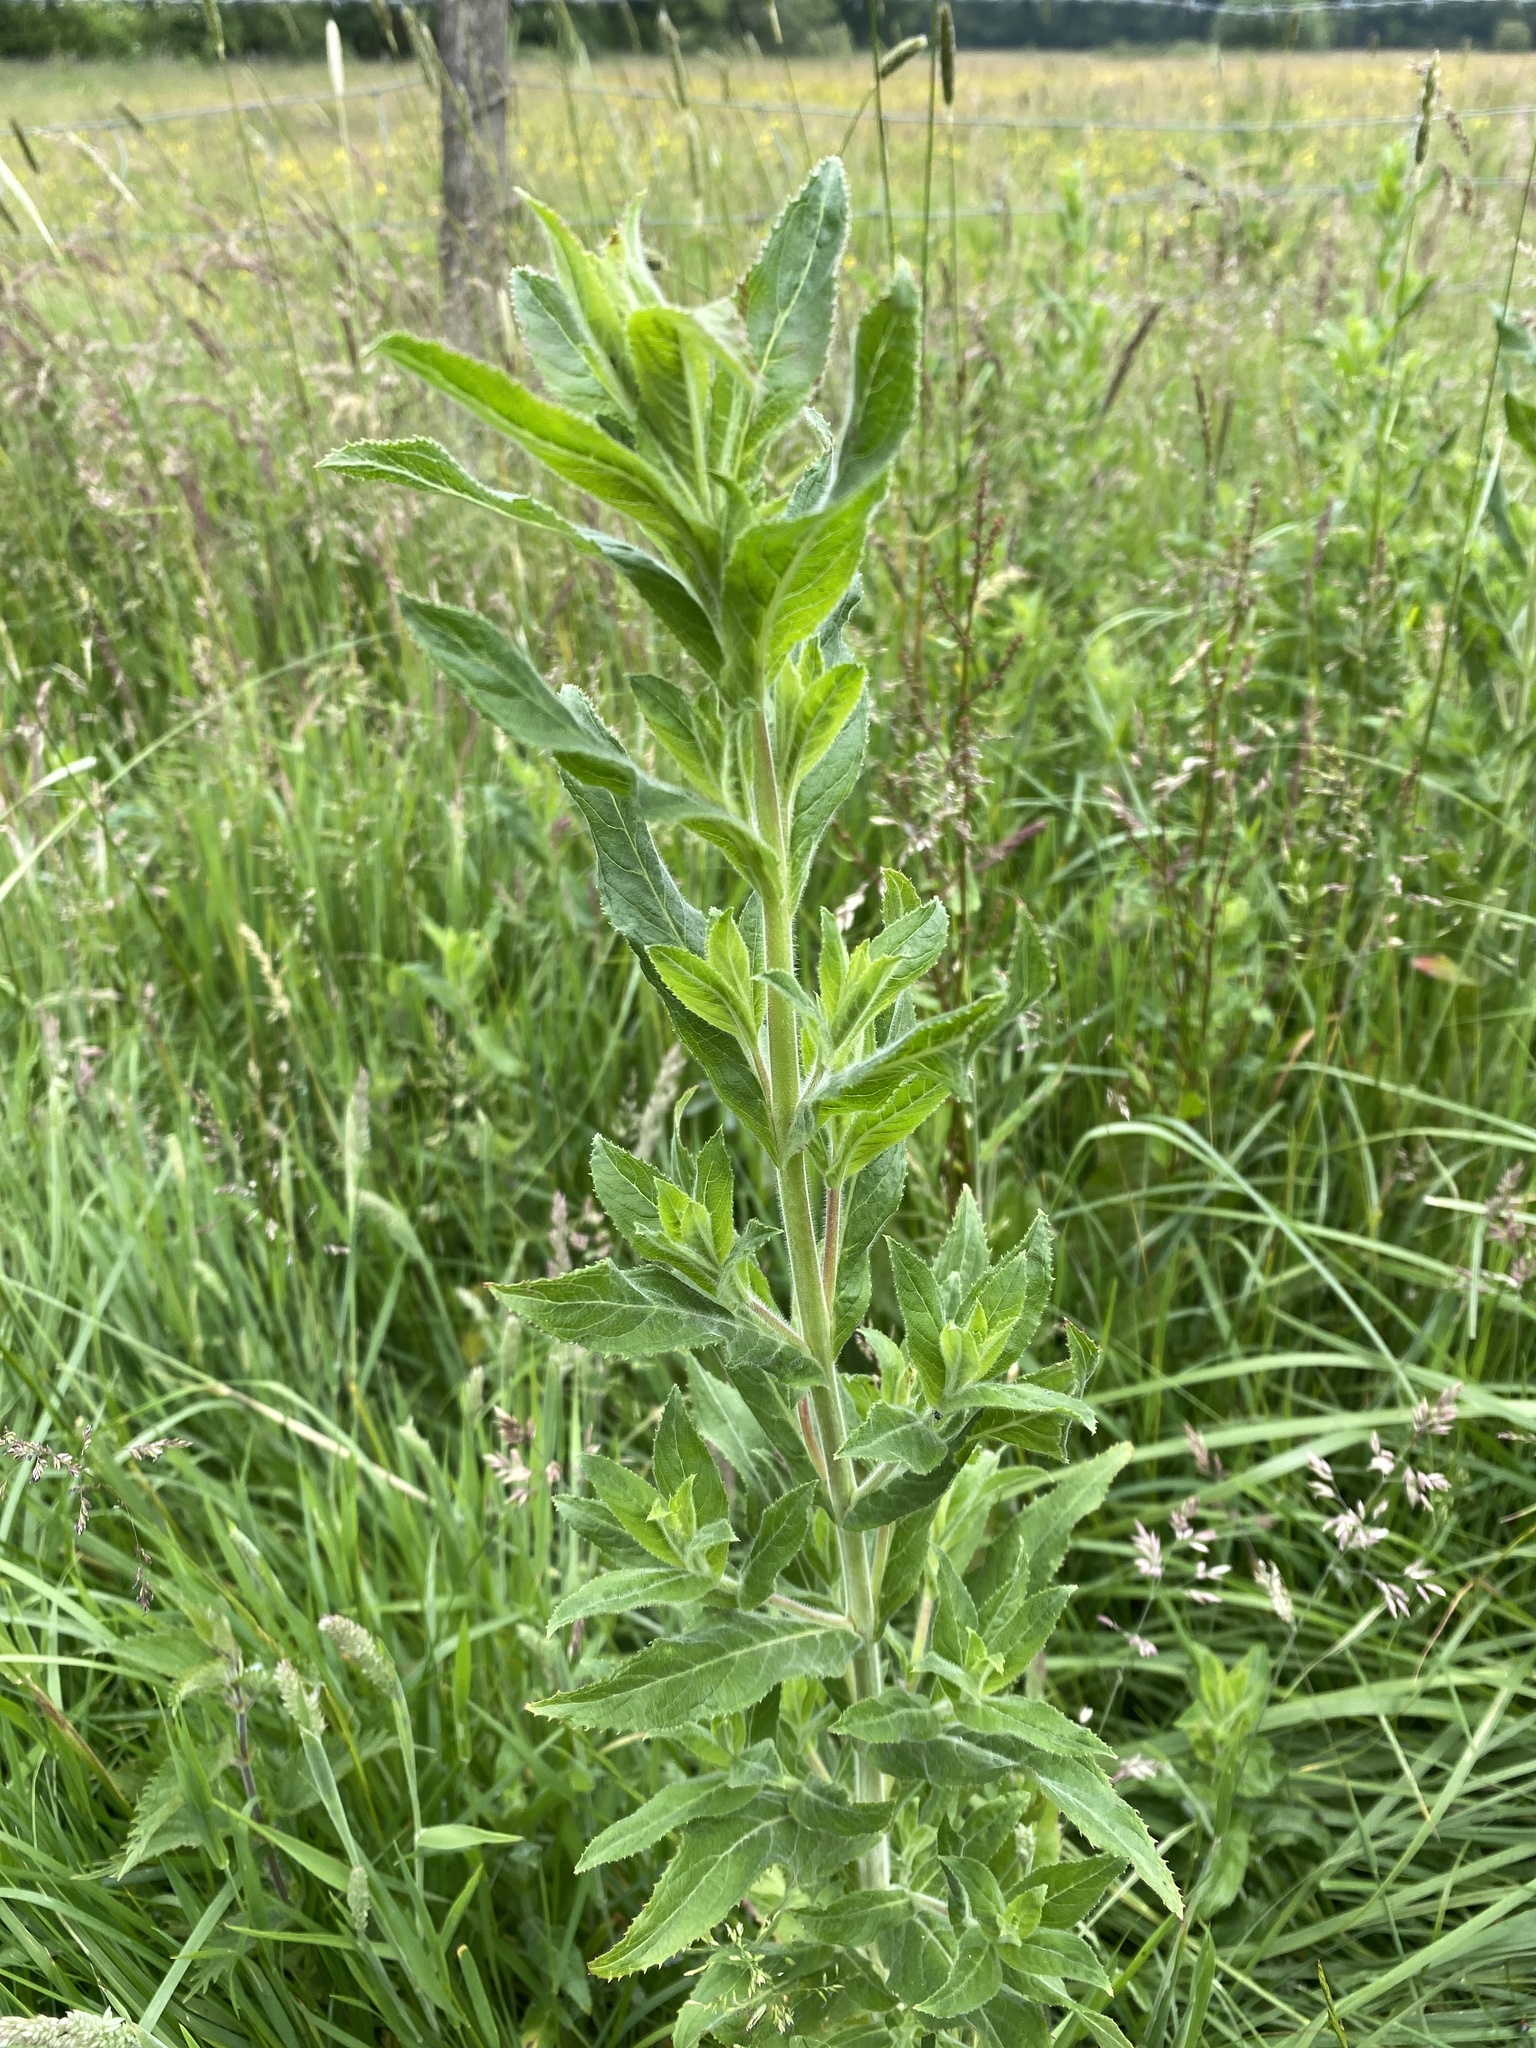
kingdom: Plantae
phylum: Tracheophyta
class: Magnoliopsida
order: Myrtales
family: Onagraceae
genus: Epilobium
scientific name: Epilobium hirsutum
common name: Great willowherb
